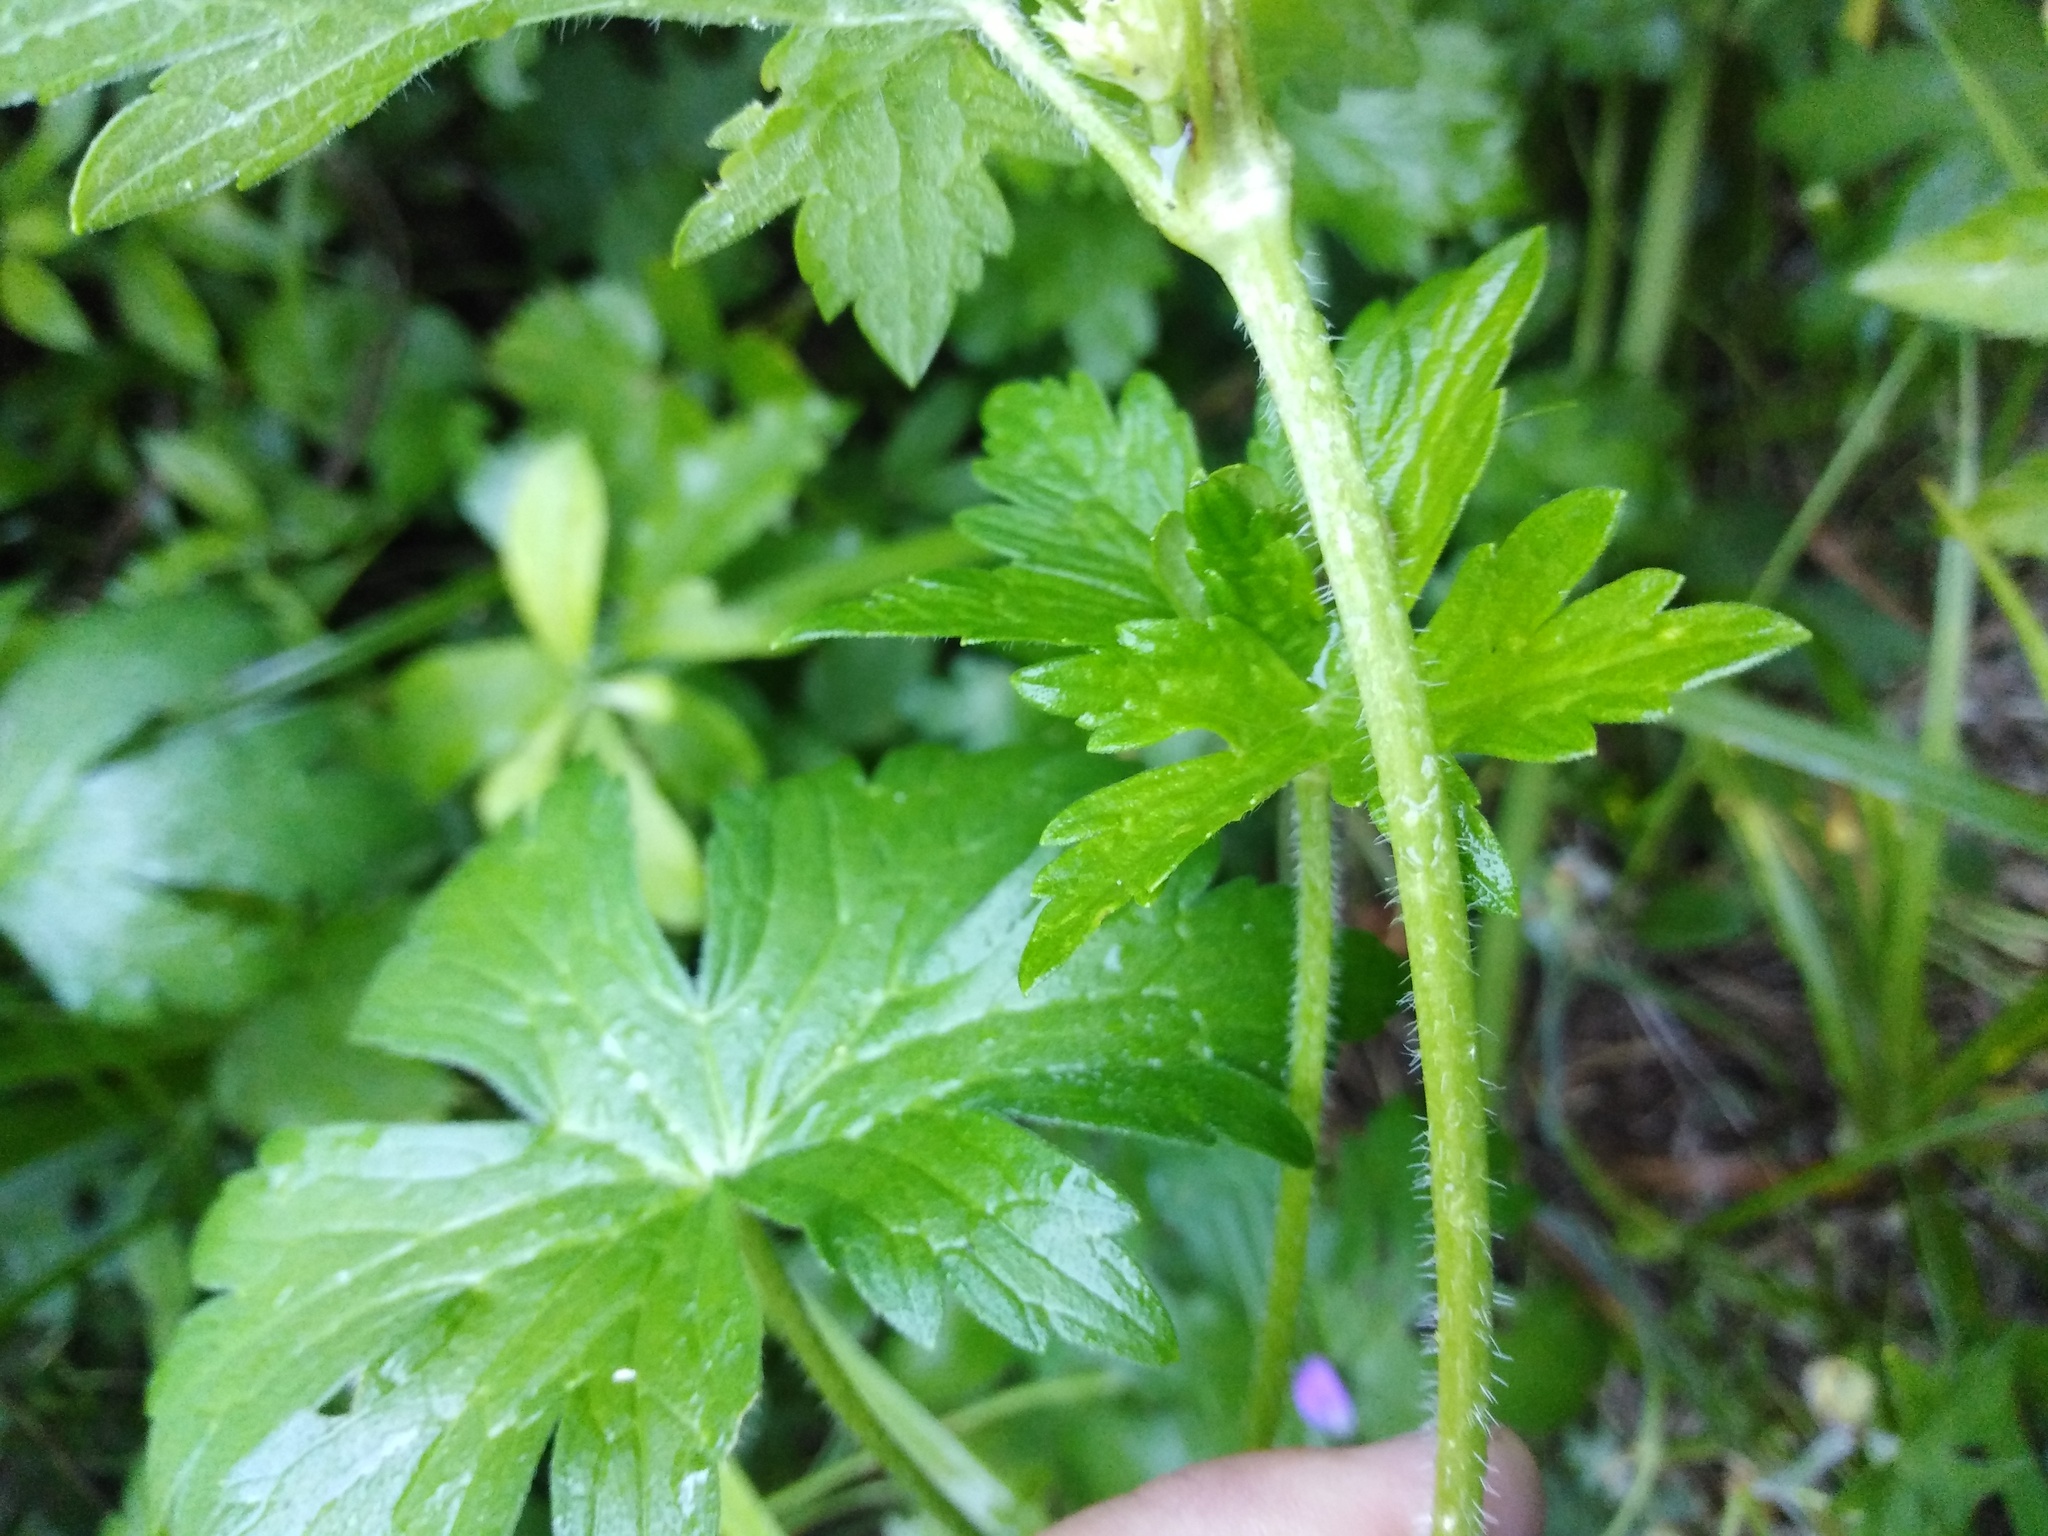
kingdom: Plantae
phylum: Tracheophyta
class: Magnoliopsida
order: Geraniales
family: Geraniaceae
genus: Geranium
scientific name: Geranium palustre
